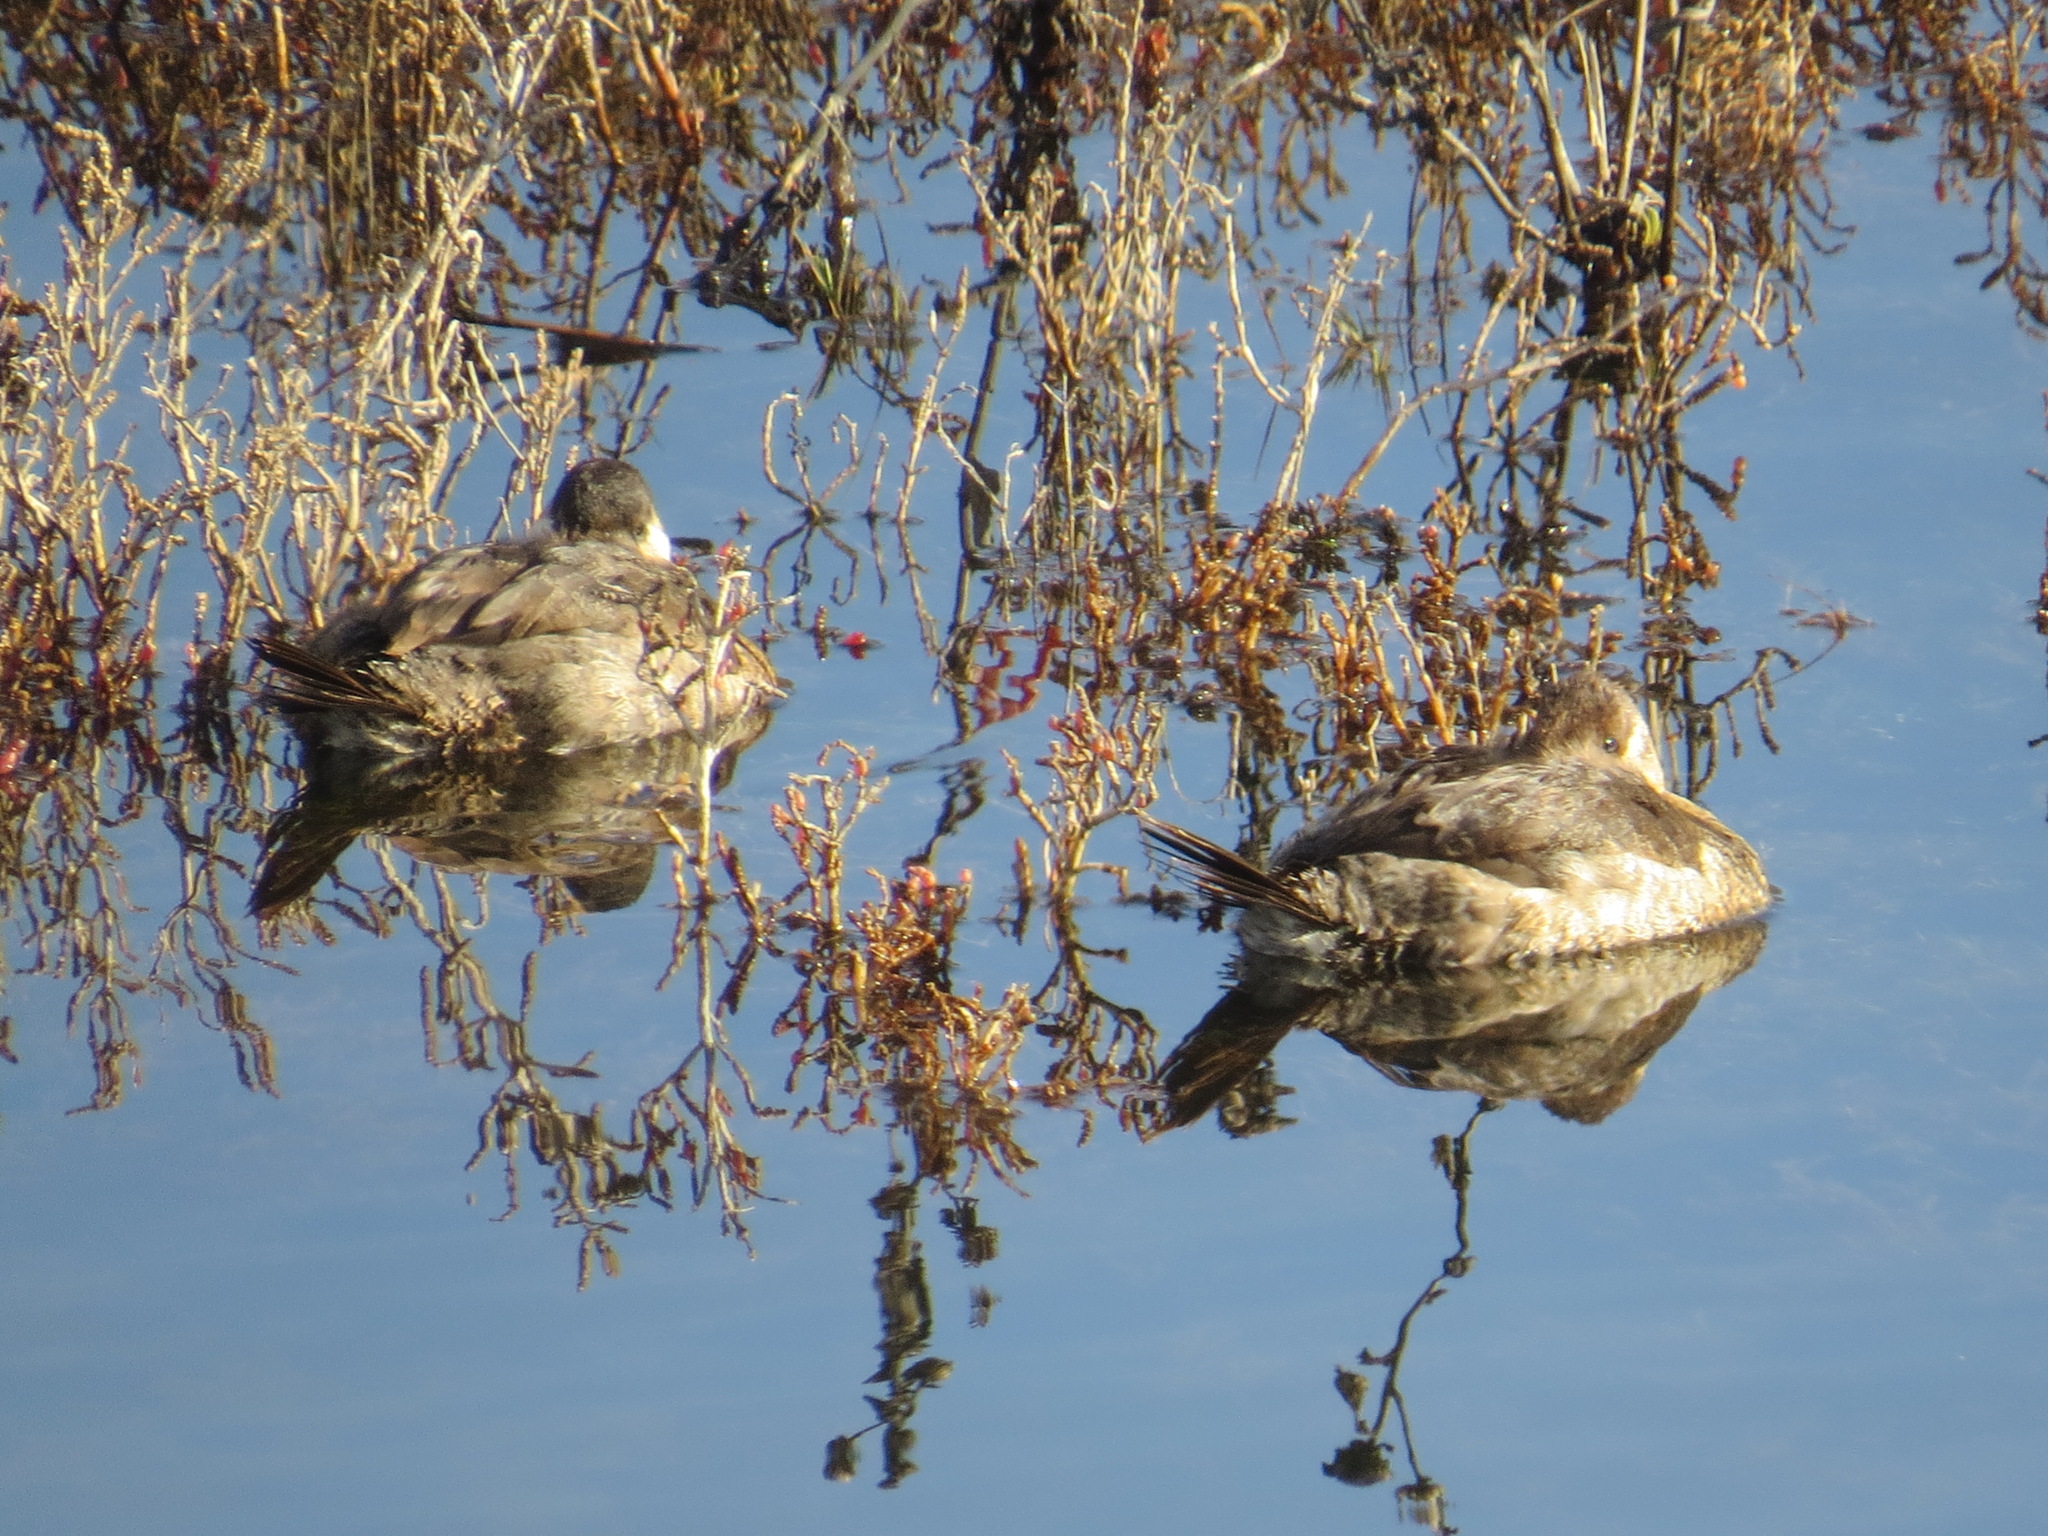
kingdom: Animalia
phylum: Chordata
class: Aves
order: Anseriformes
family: Anatidae
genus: Oxyura
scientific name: Oxyura jamaicensis
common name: Ruddy duck
